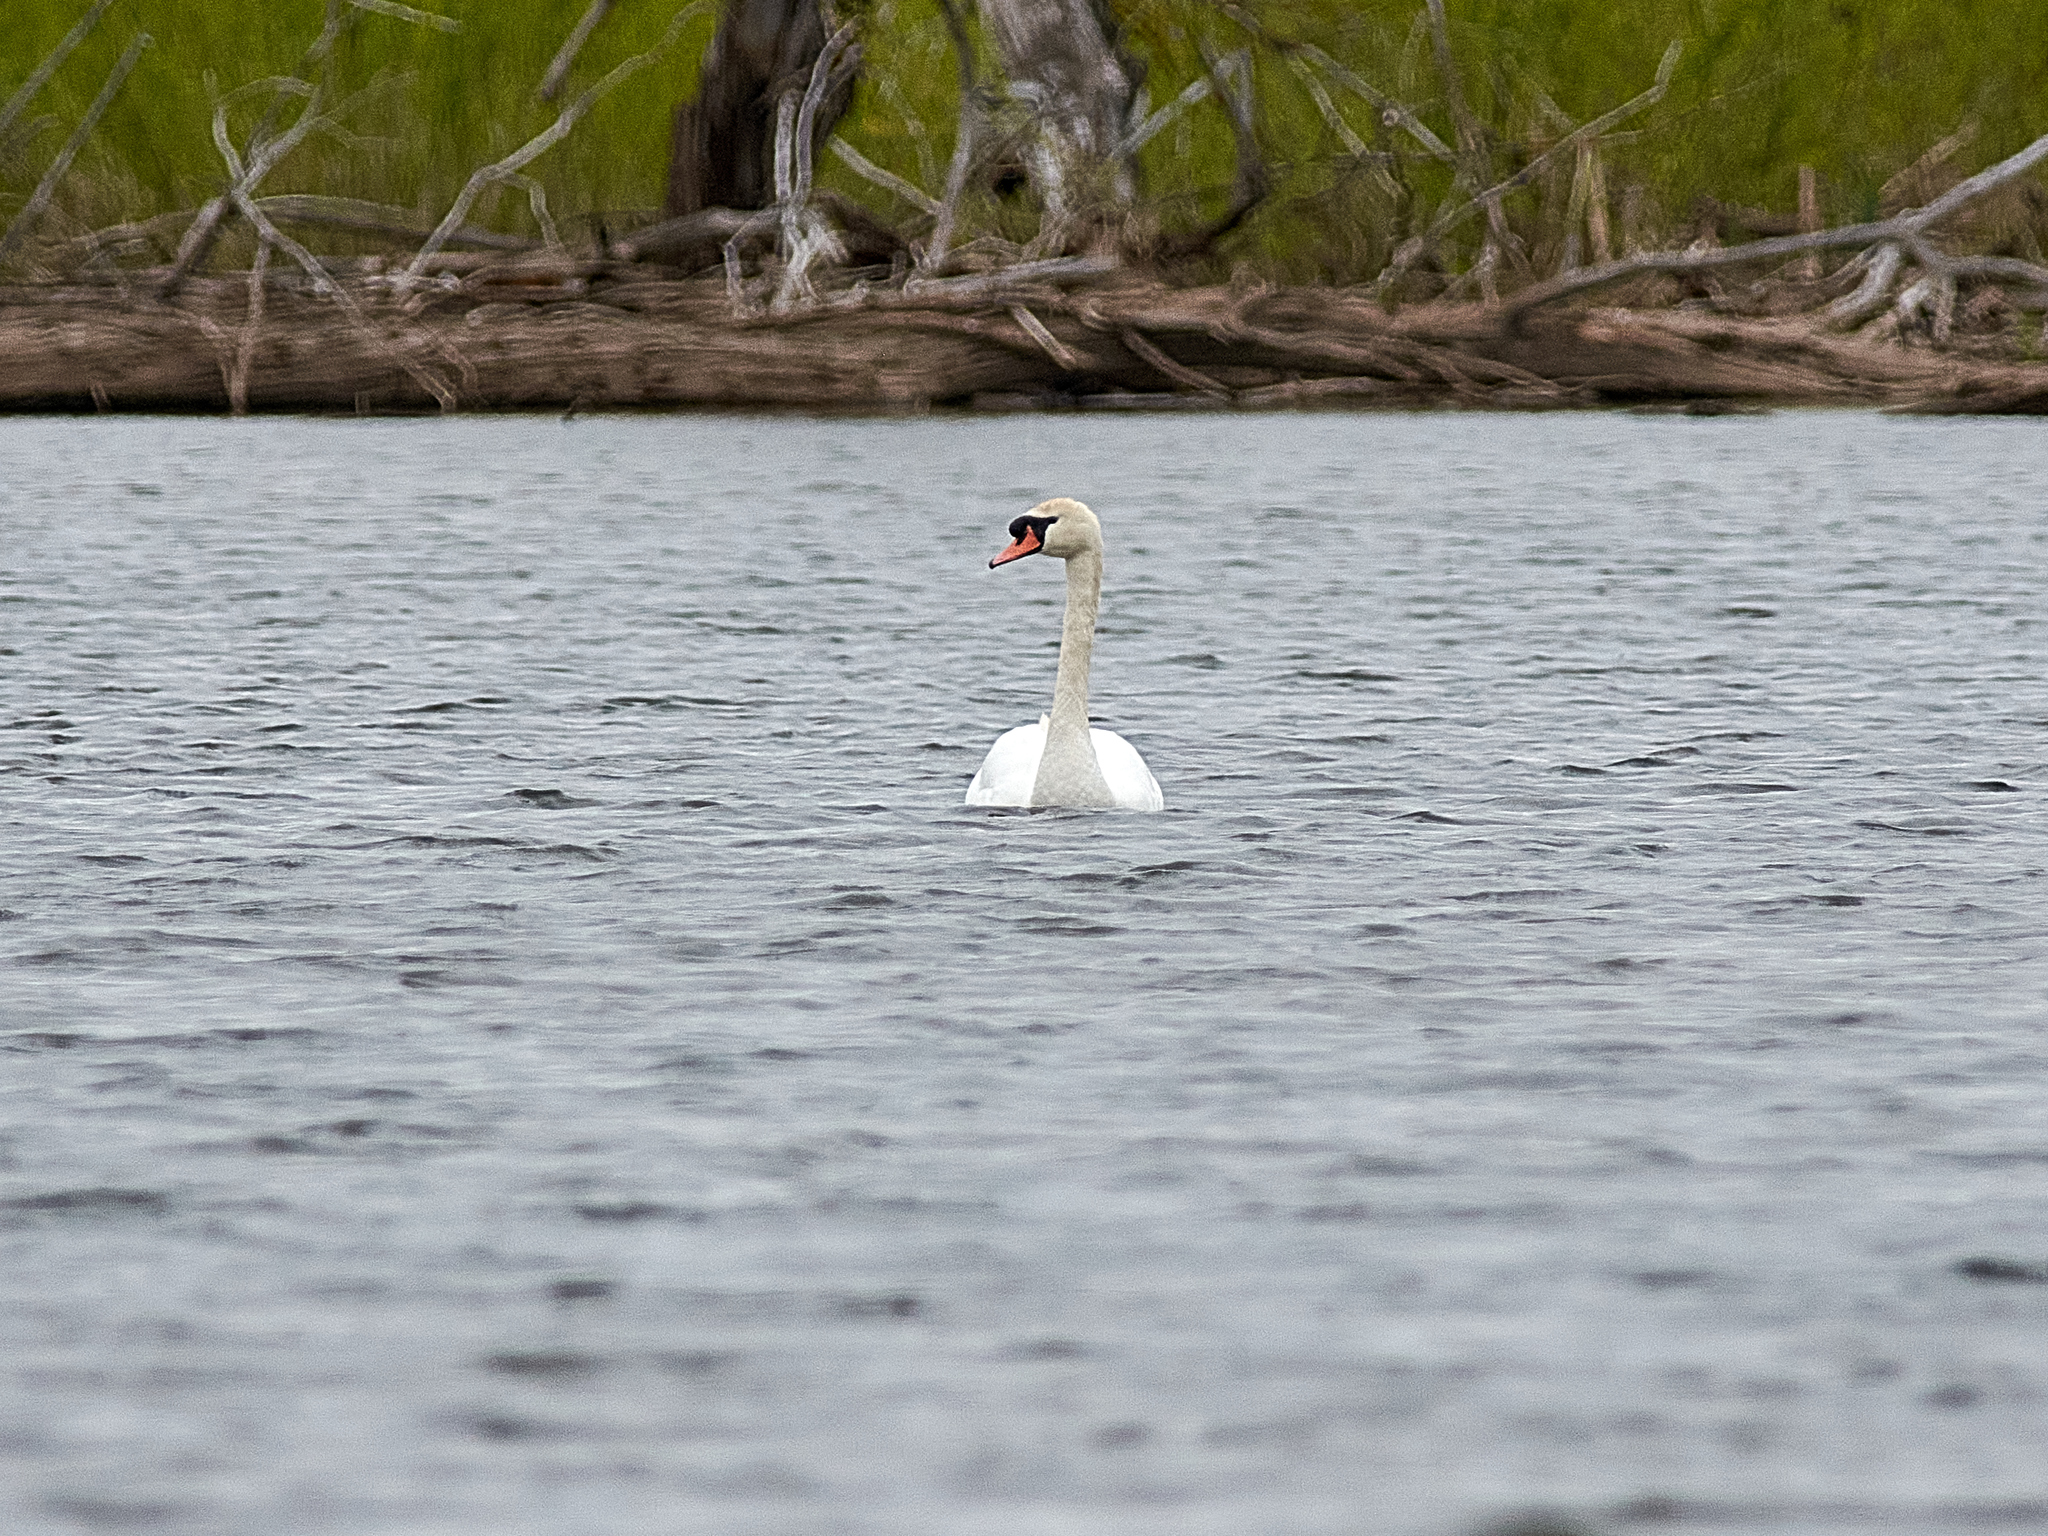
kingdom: Animalia
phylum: Chordata
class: Aves
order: Anseriformes
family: Anatidae
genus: Cygnus
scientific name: Cygnus olor
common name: Mute swan
